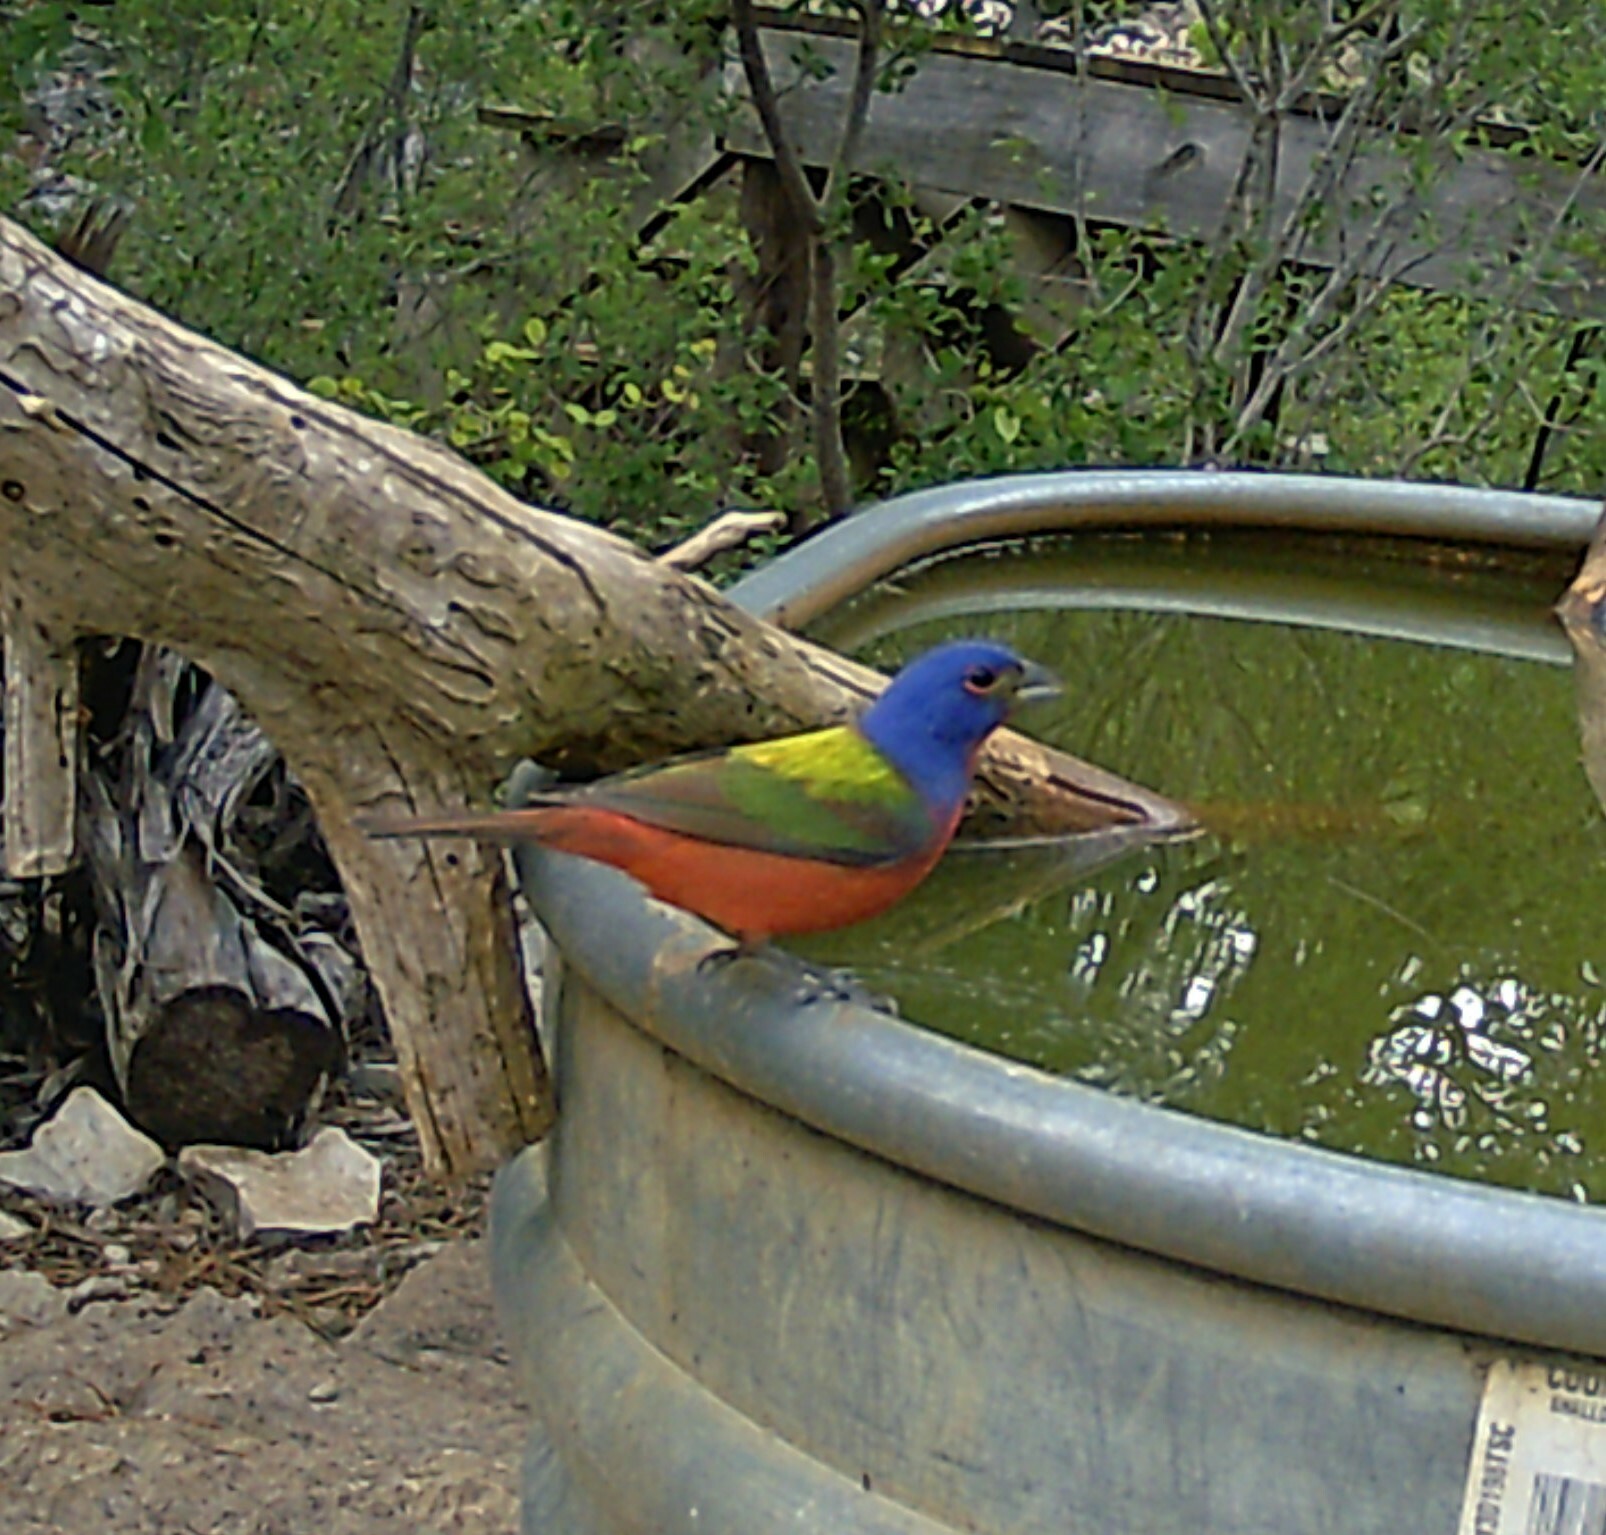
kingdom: Animalia
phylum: Chordata
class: Aves
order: Passeriformes
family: Cardinalidae
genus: Passerina
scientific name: Passerina ciris
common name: Painted bunting
